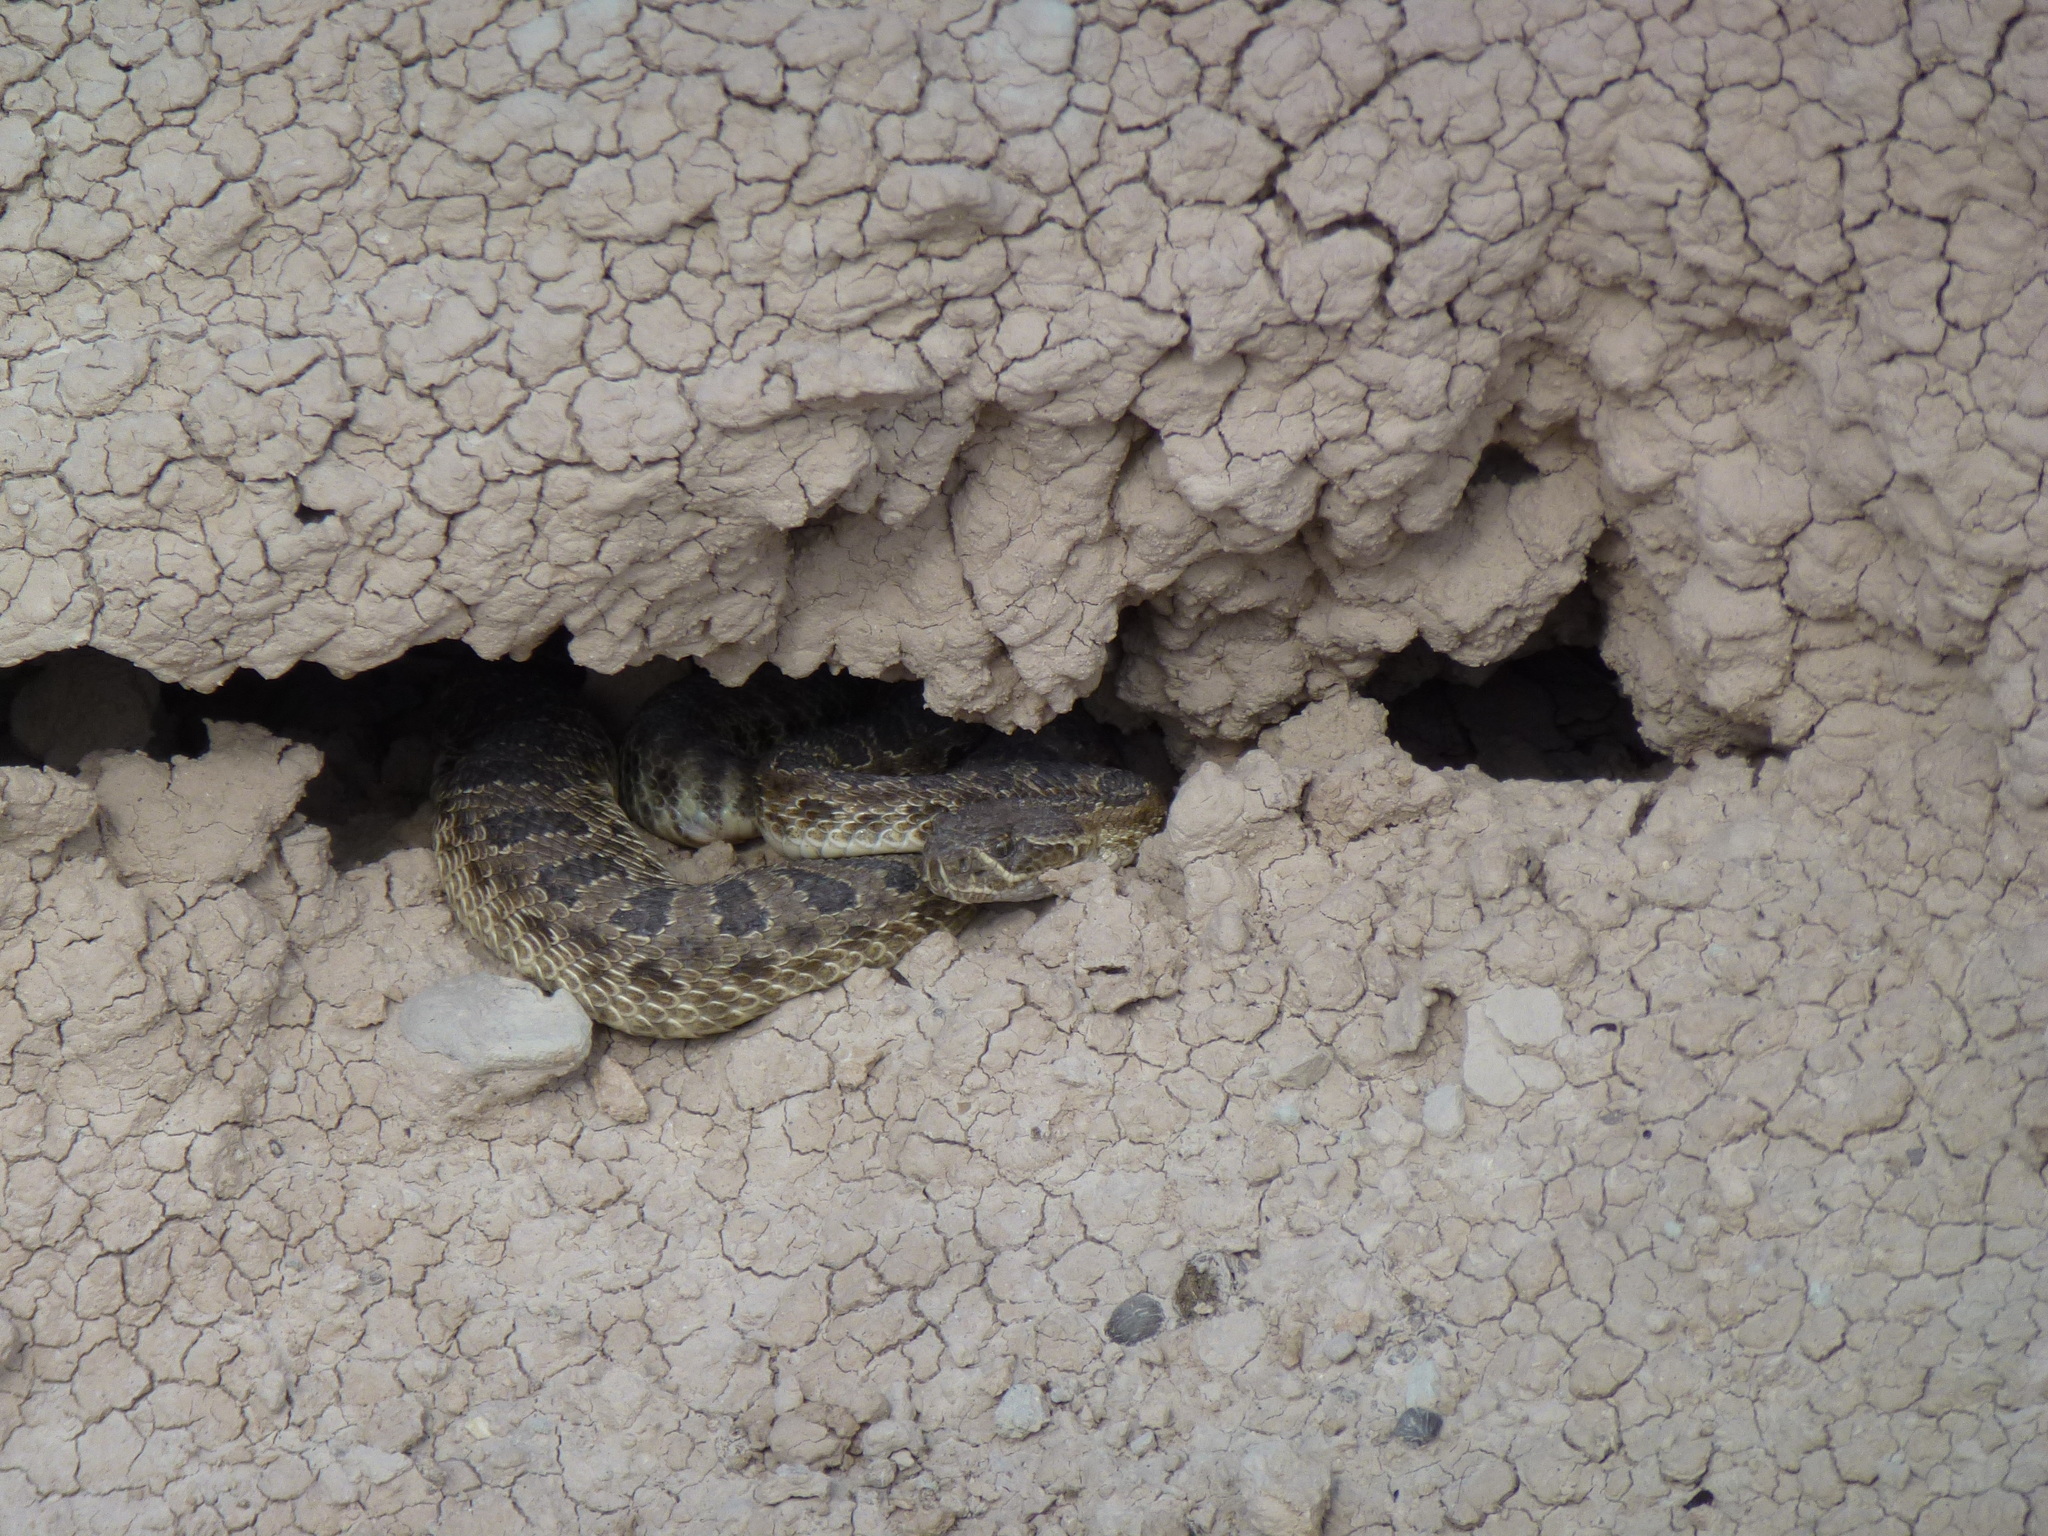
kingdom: Animalia
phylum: Chordata
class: Squamata
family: Viperidae
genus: Crotalus
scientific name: Crotalus viridis
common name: Prairie rattlesnake
